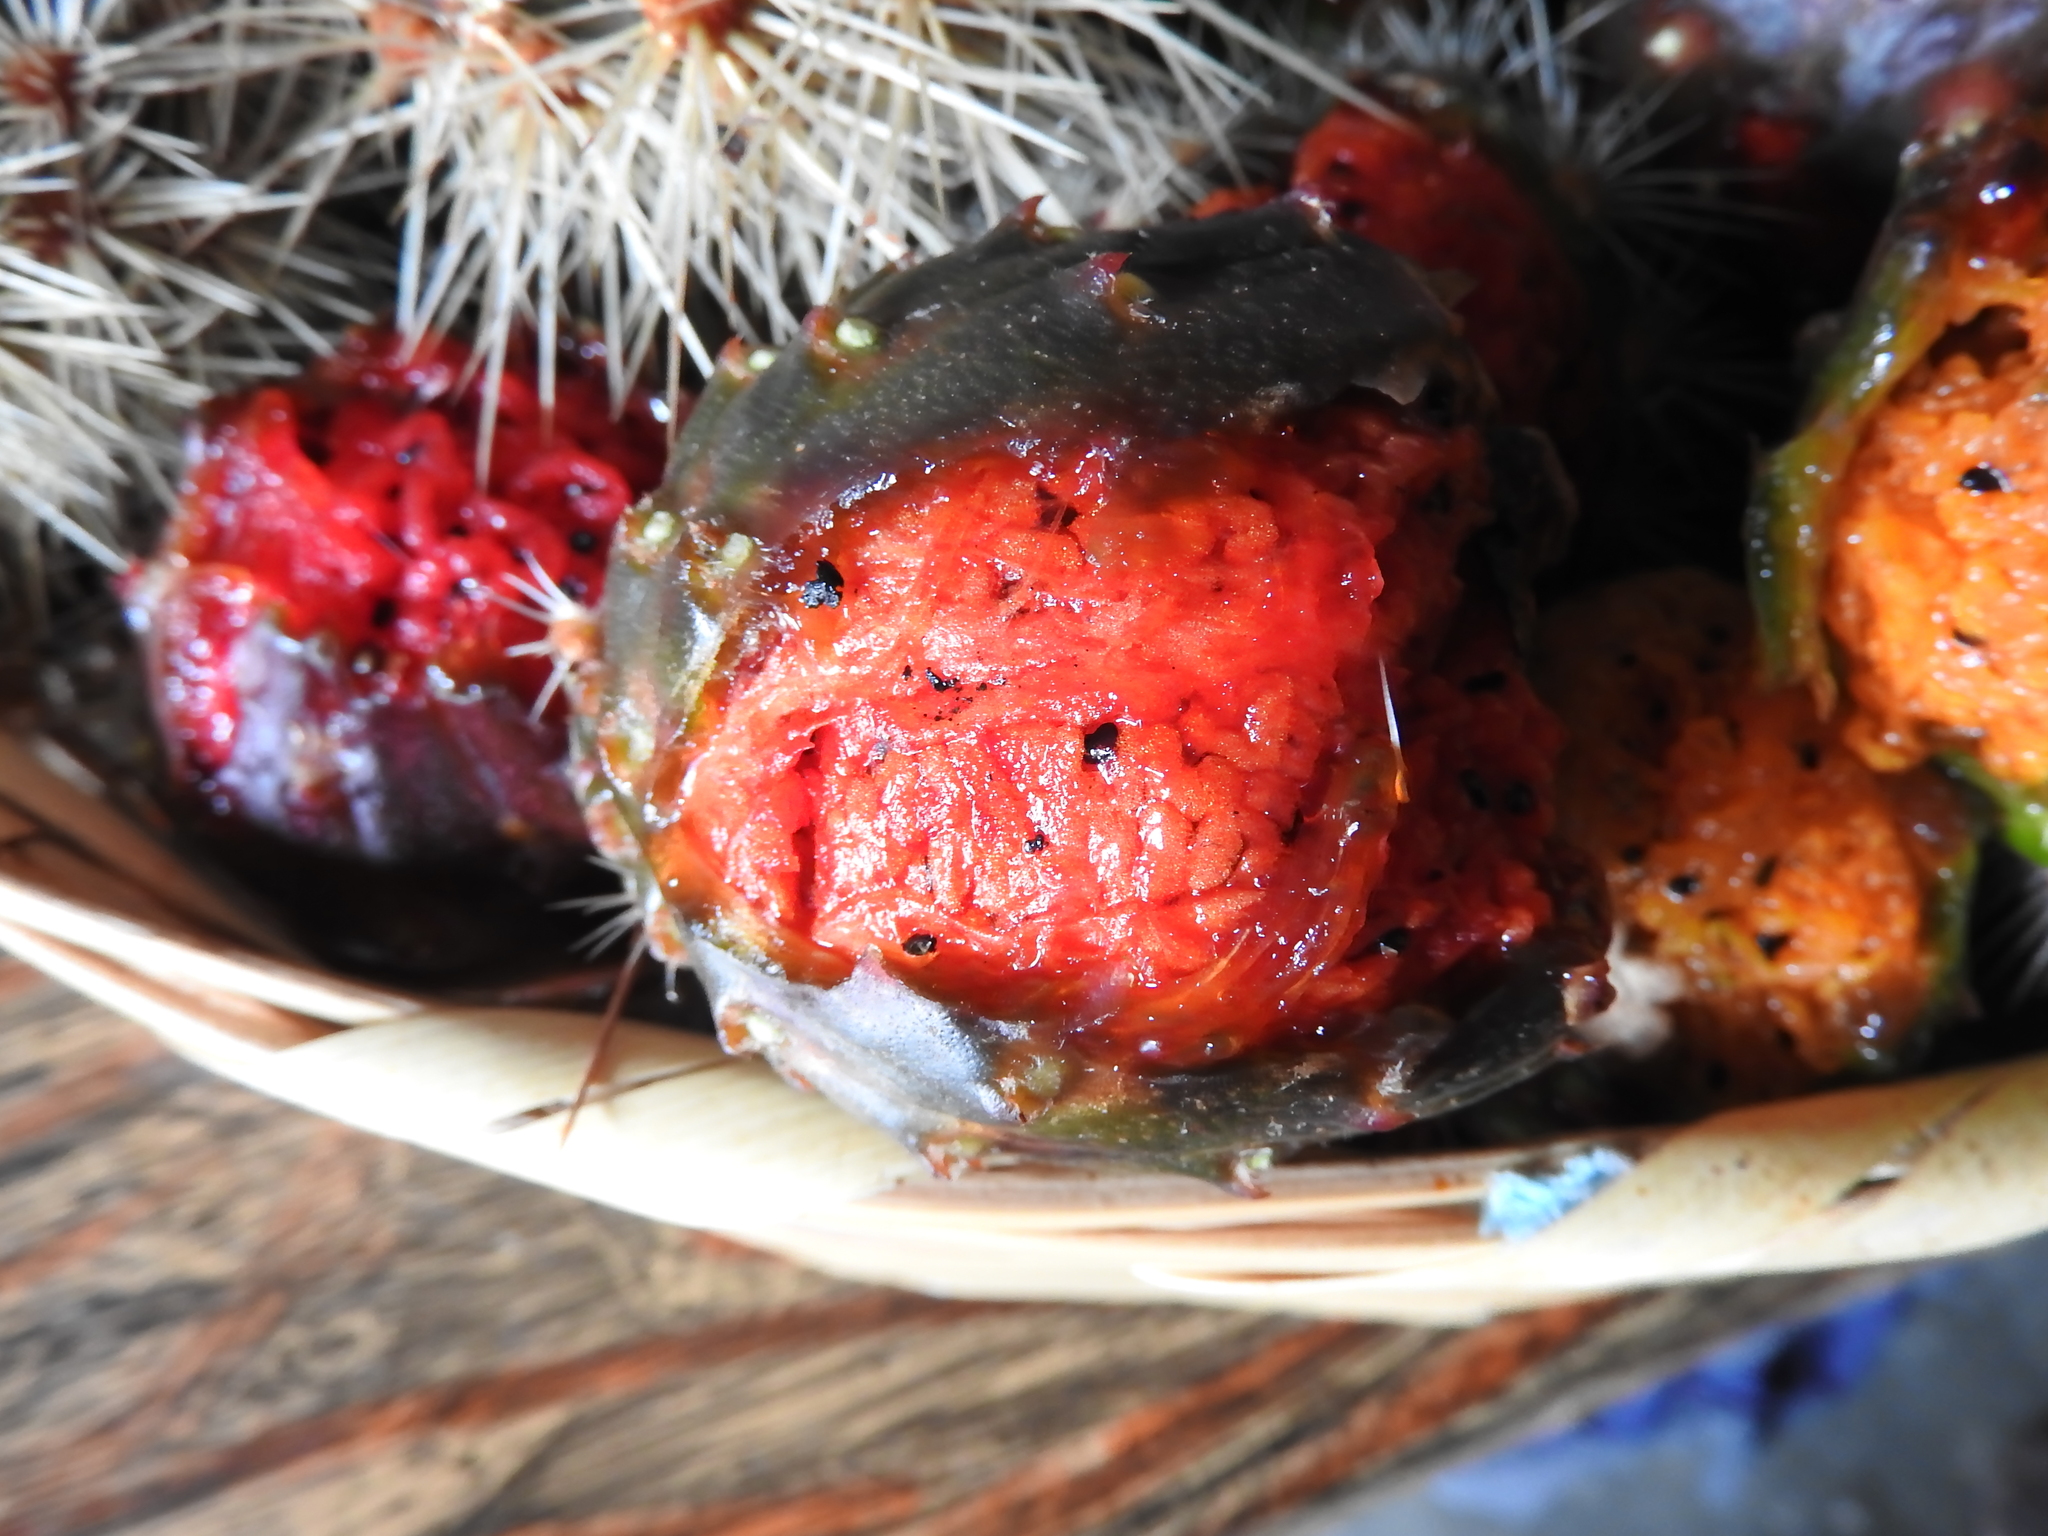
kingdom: Plantae
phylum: Tracheophyta
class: Magnoliopsida
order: Caryophyllales
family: Cactaceae
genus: Stenocereus
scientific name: Stenocereus queretaroensis
